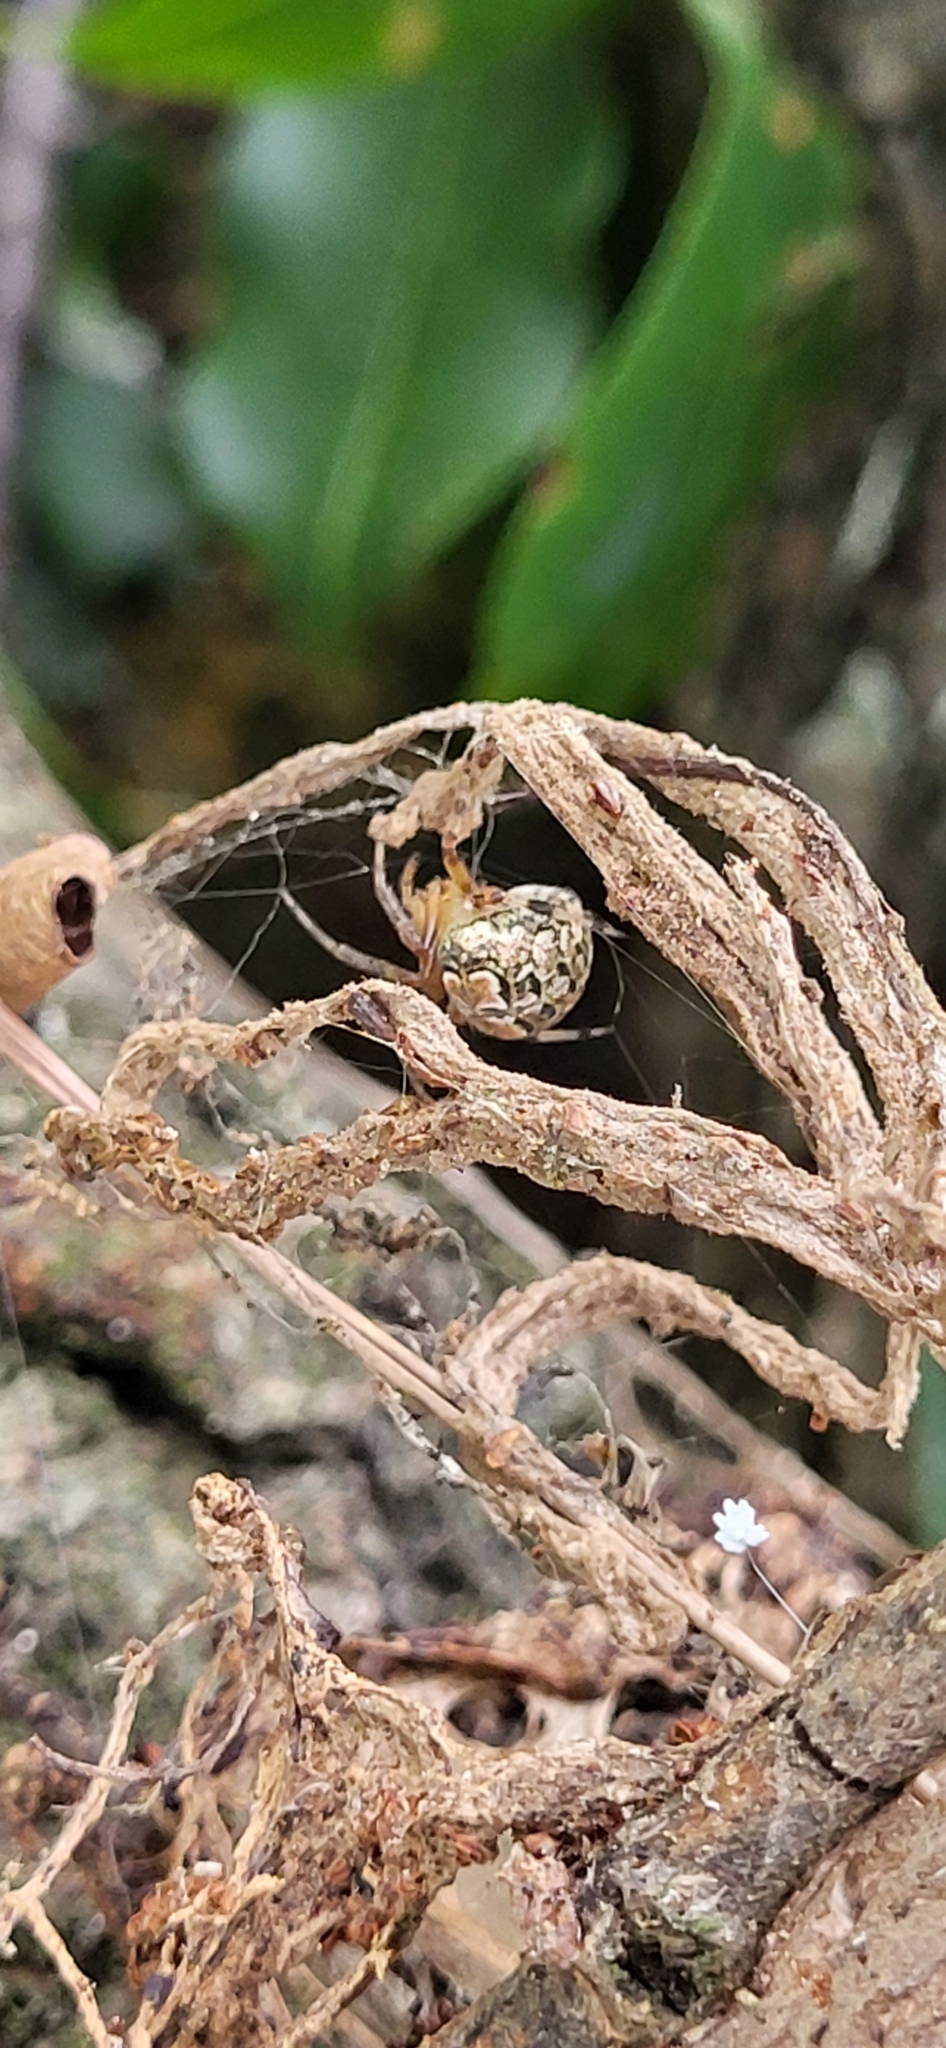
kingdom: Animalia
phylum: Arthropoda
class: Arachnida
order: Araneae
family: Araneidae
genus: Araneus
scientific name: Araneus pegnia
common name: Orb weavers
